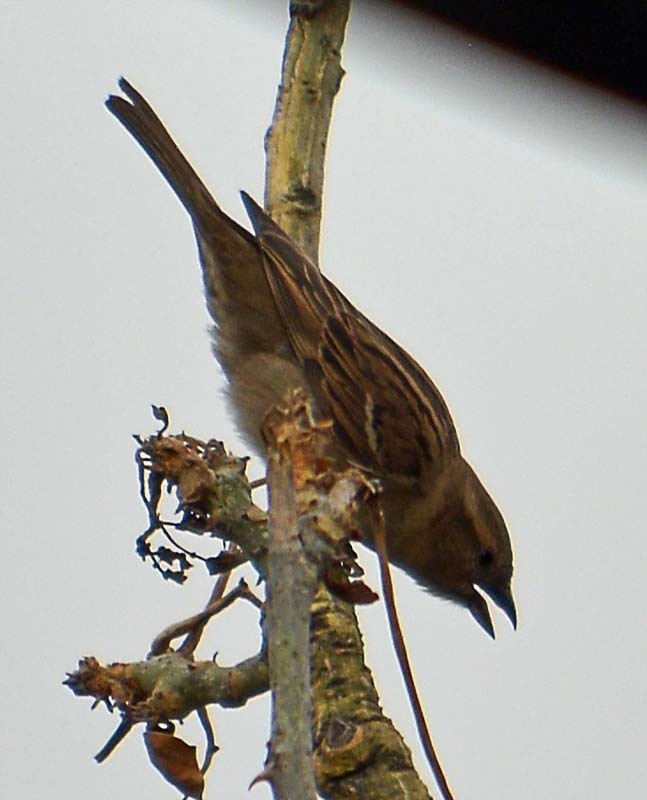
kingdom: Animalia
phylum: Chordata
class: Aves
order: Passeriformes
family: Passeridae
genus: Passer
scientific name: Passer domesticus
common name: House sparrow
